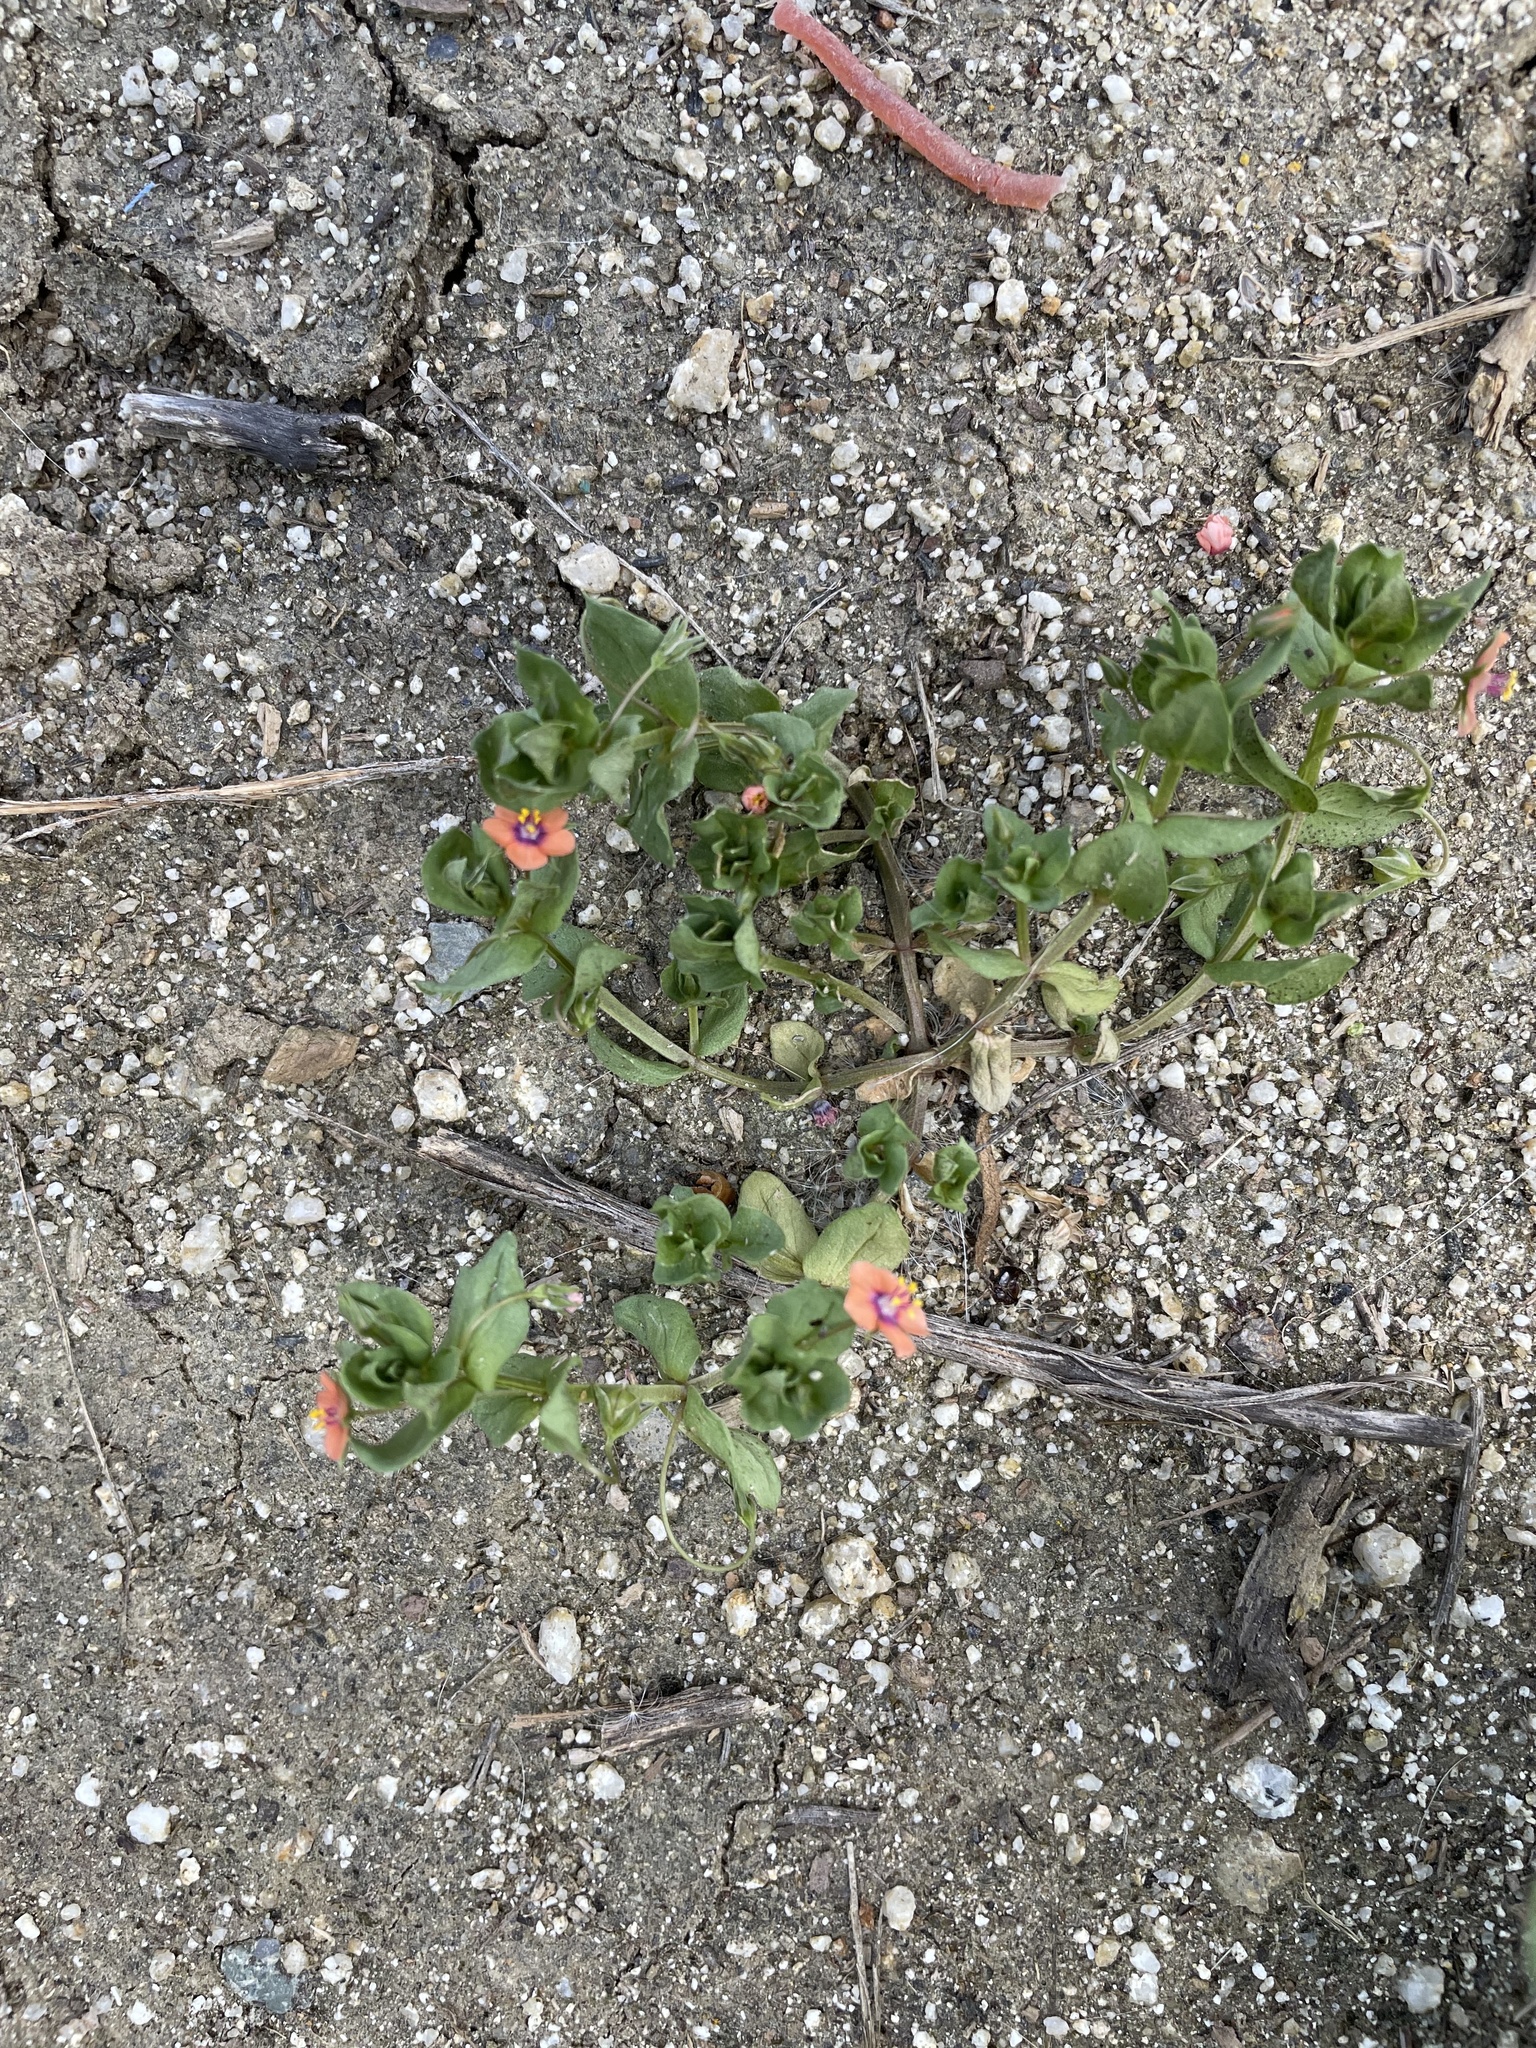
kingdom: Plantae
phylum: Tracheophyta
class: Magnoliopsida
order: Ericales
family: Primulaceae
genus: Lysimachia
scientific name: Lysimachia arvensis
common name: Scarlet pimpernel
